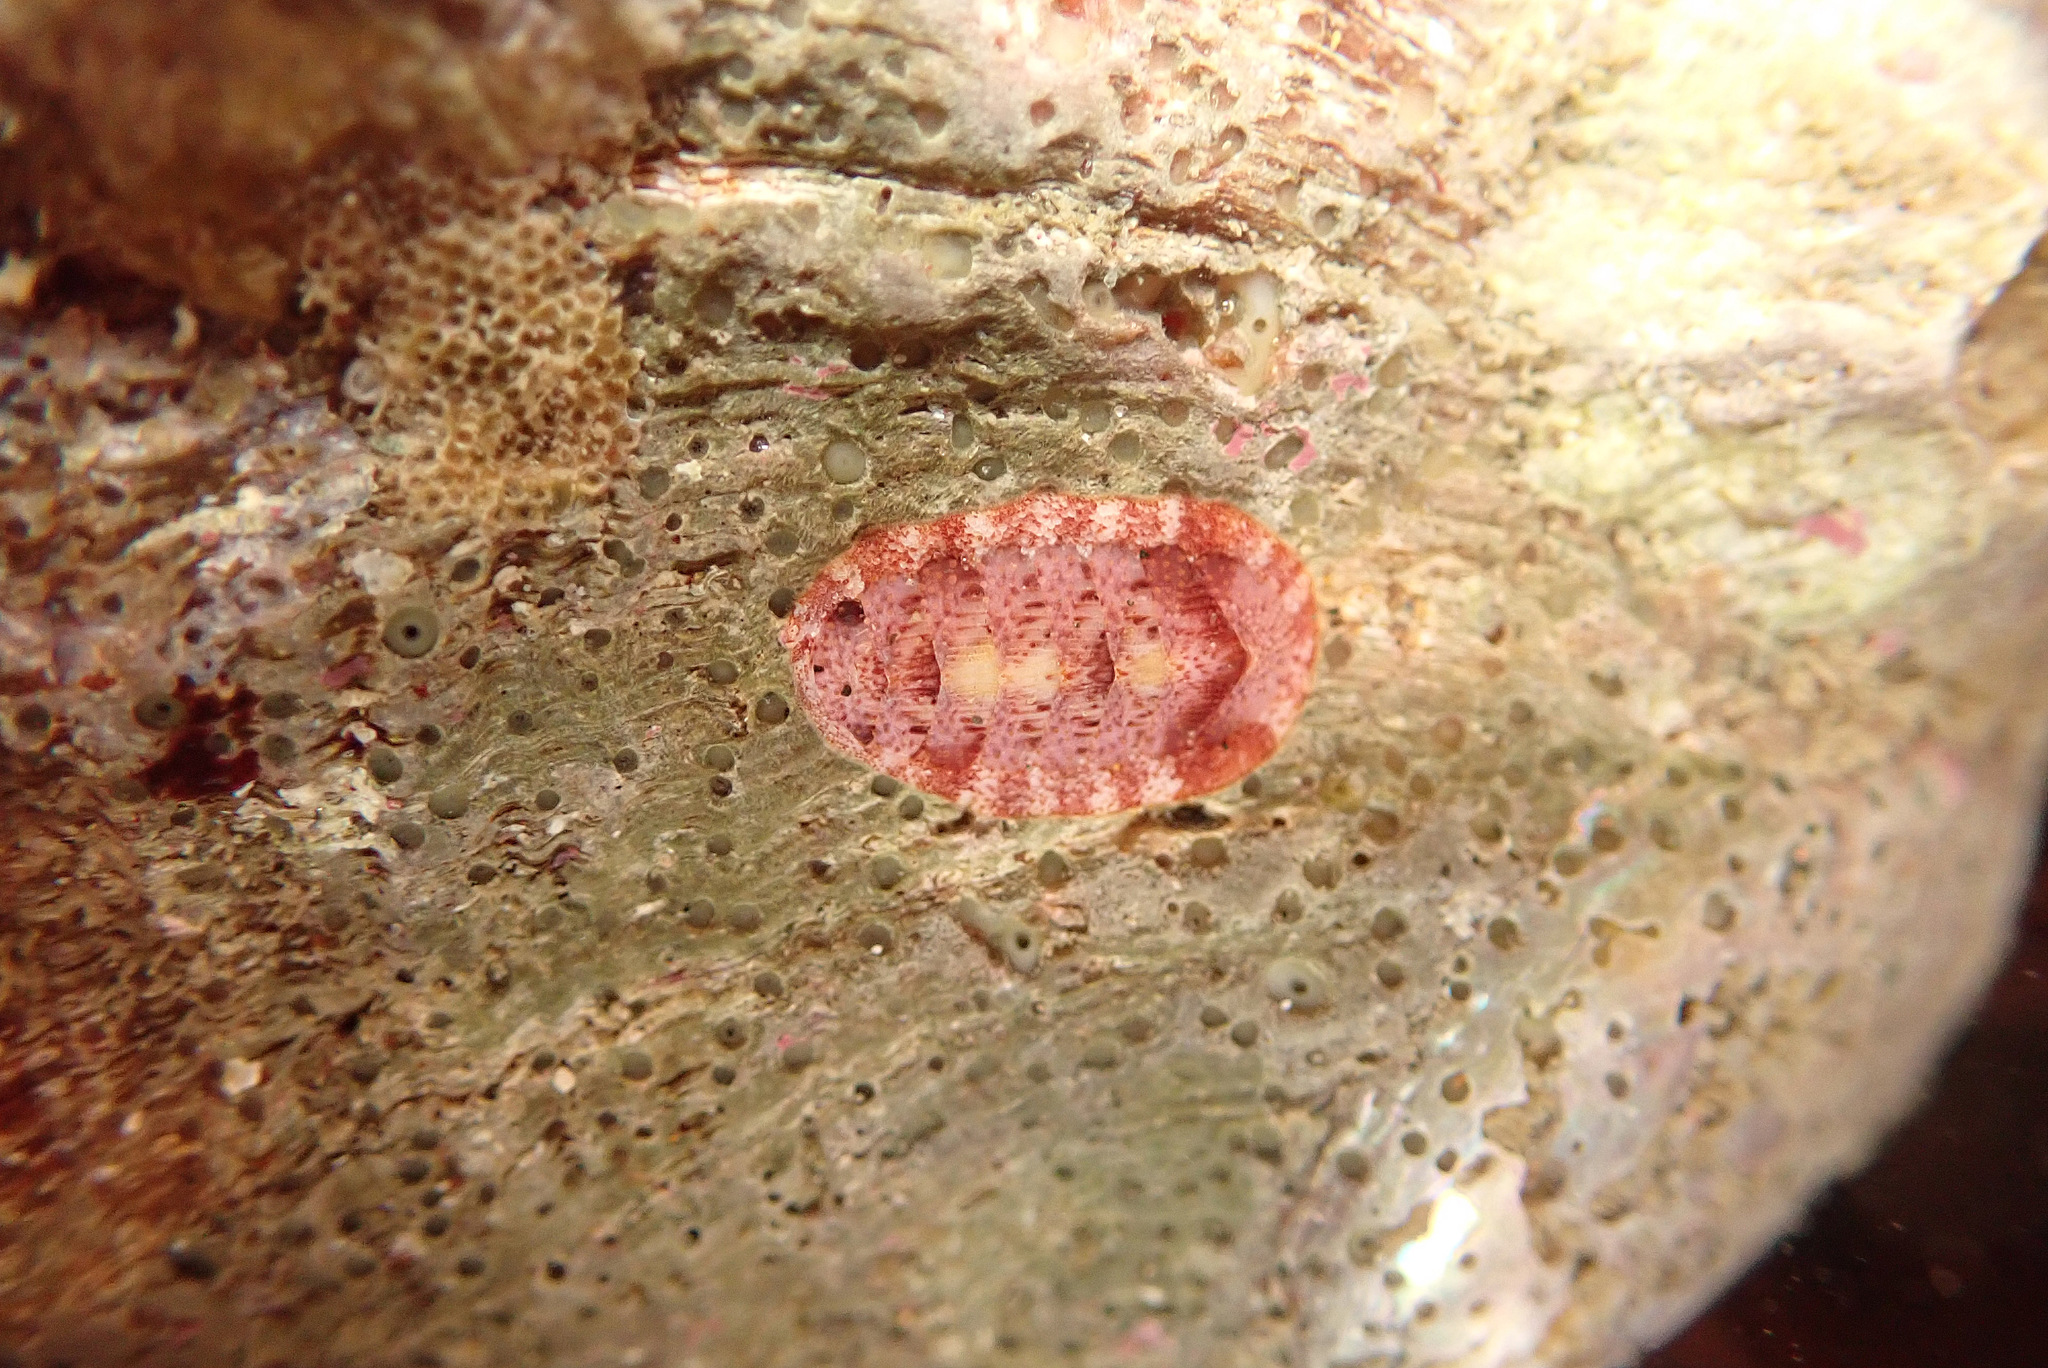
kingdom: Animalia
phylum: Mollusca
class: Polyplacophora
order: Chitonida
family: Ischnochitonidae
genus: Lepidozona
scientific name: Lepidozona mertensii
